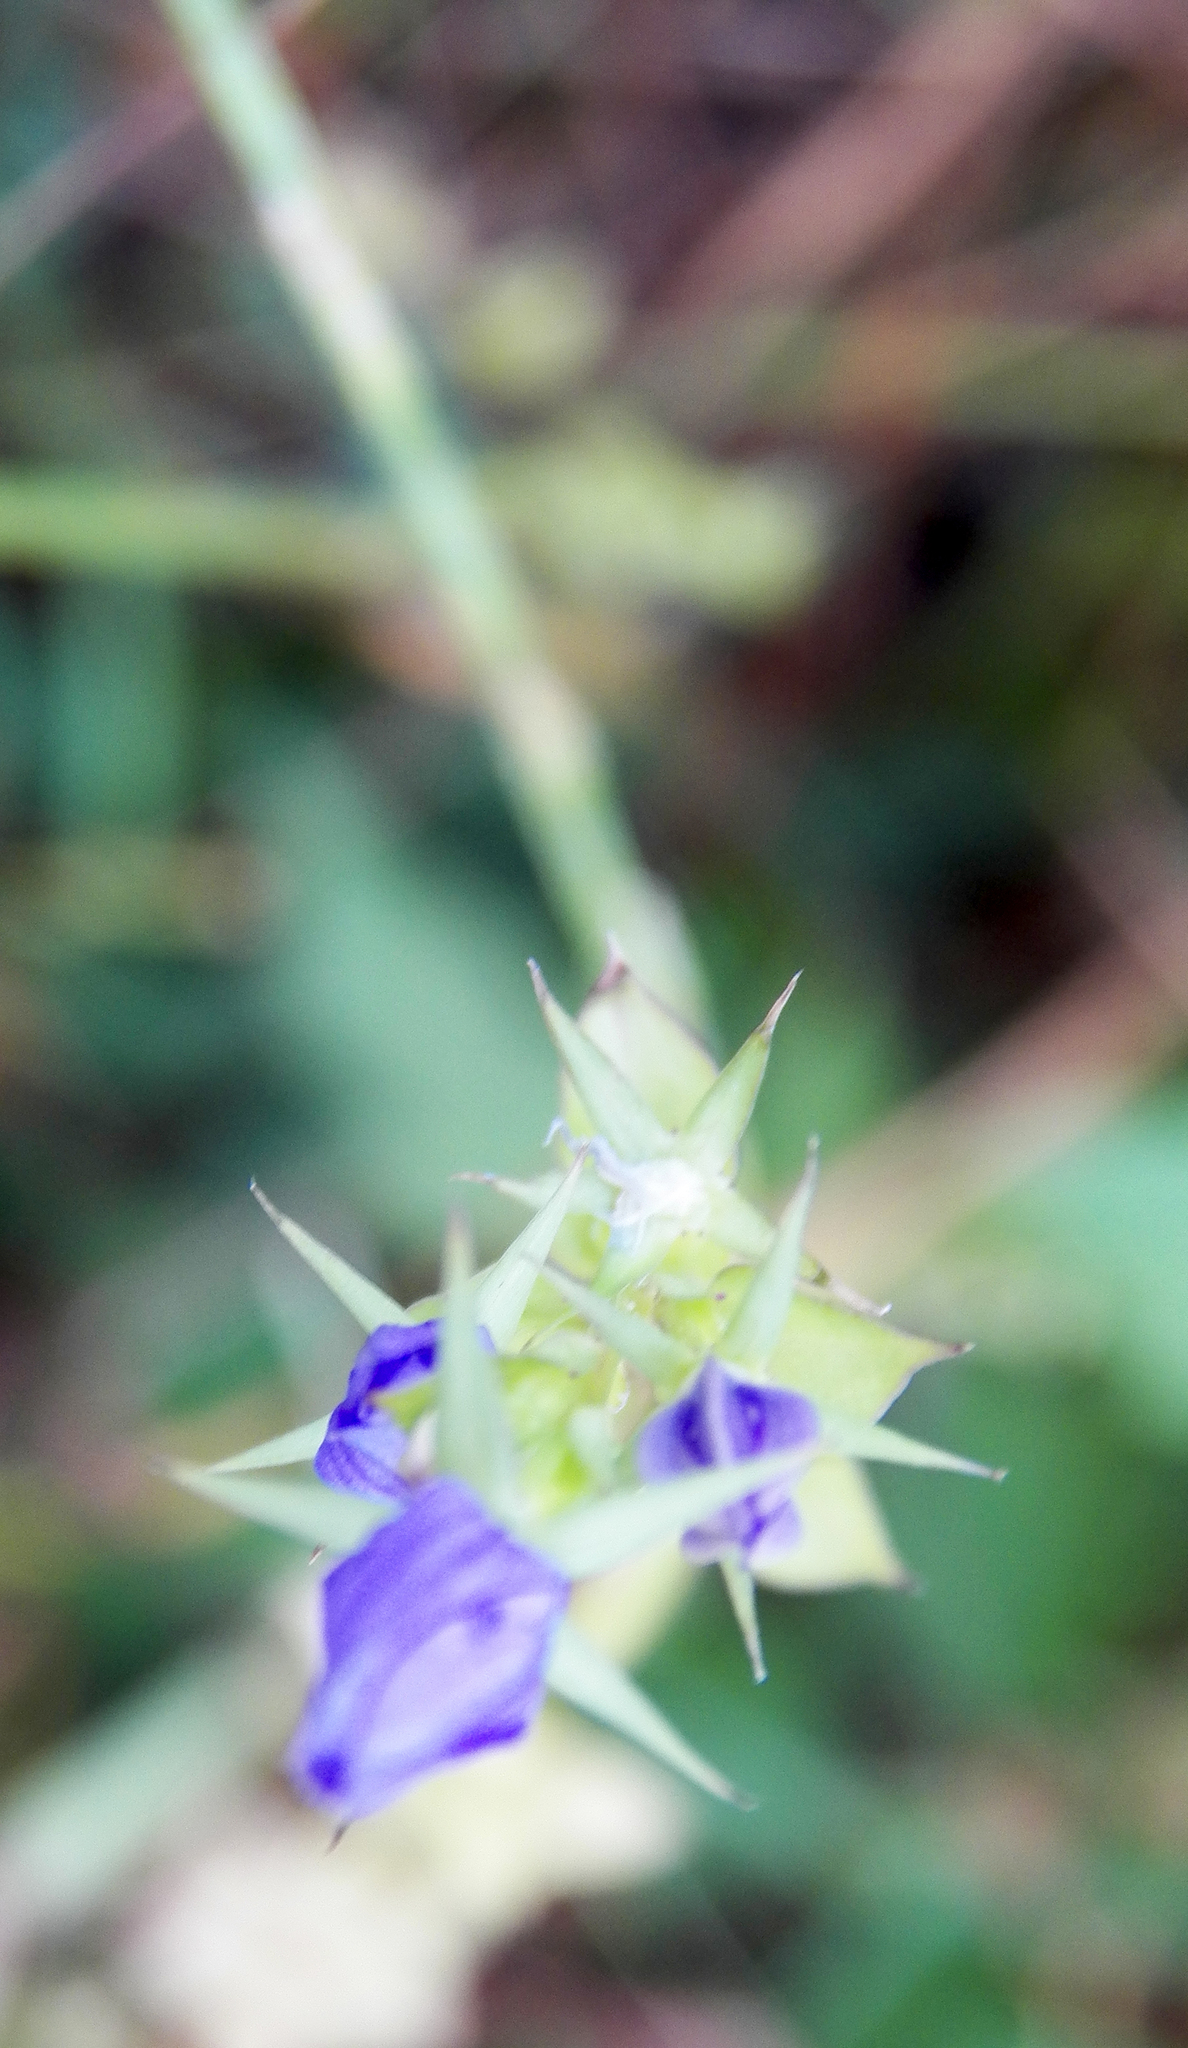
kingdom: Plantae
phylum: Tracheophyta
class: Magnoliopsida
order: Asterales
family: Campanulaceae
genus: Triodanis
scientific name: Triodanis
